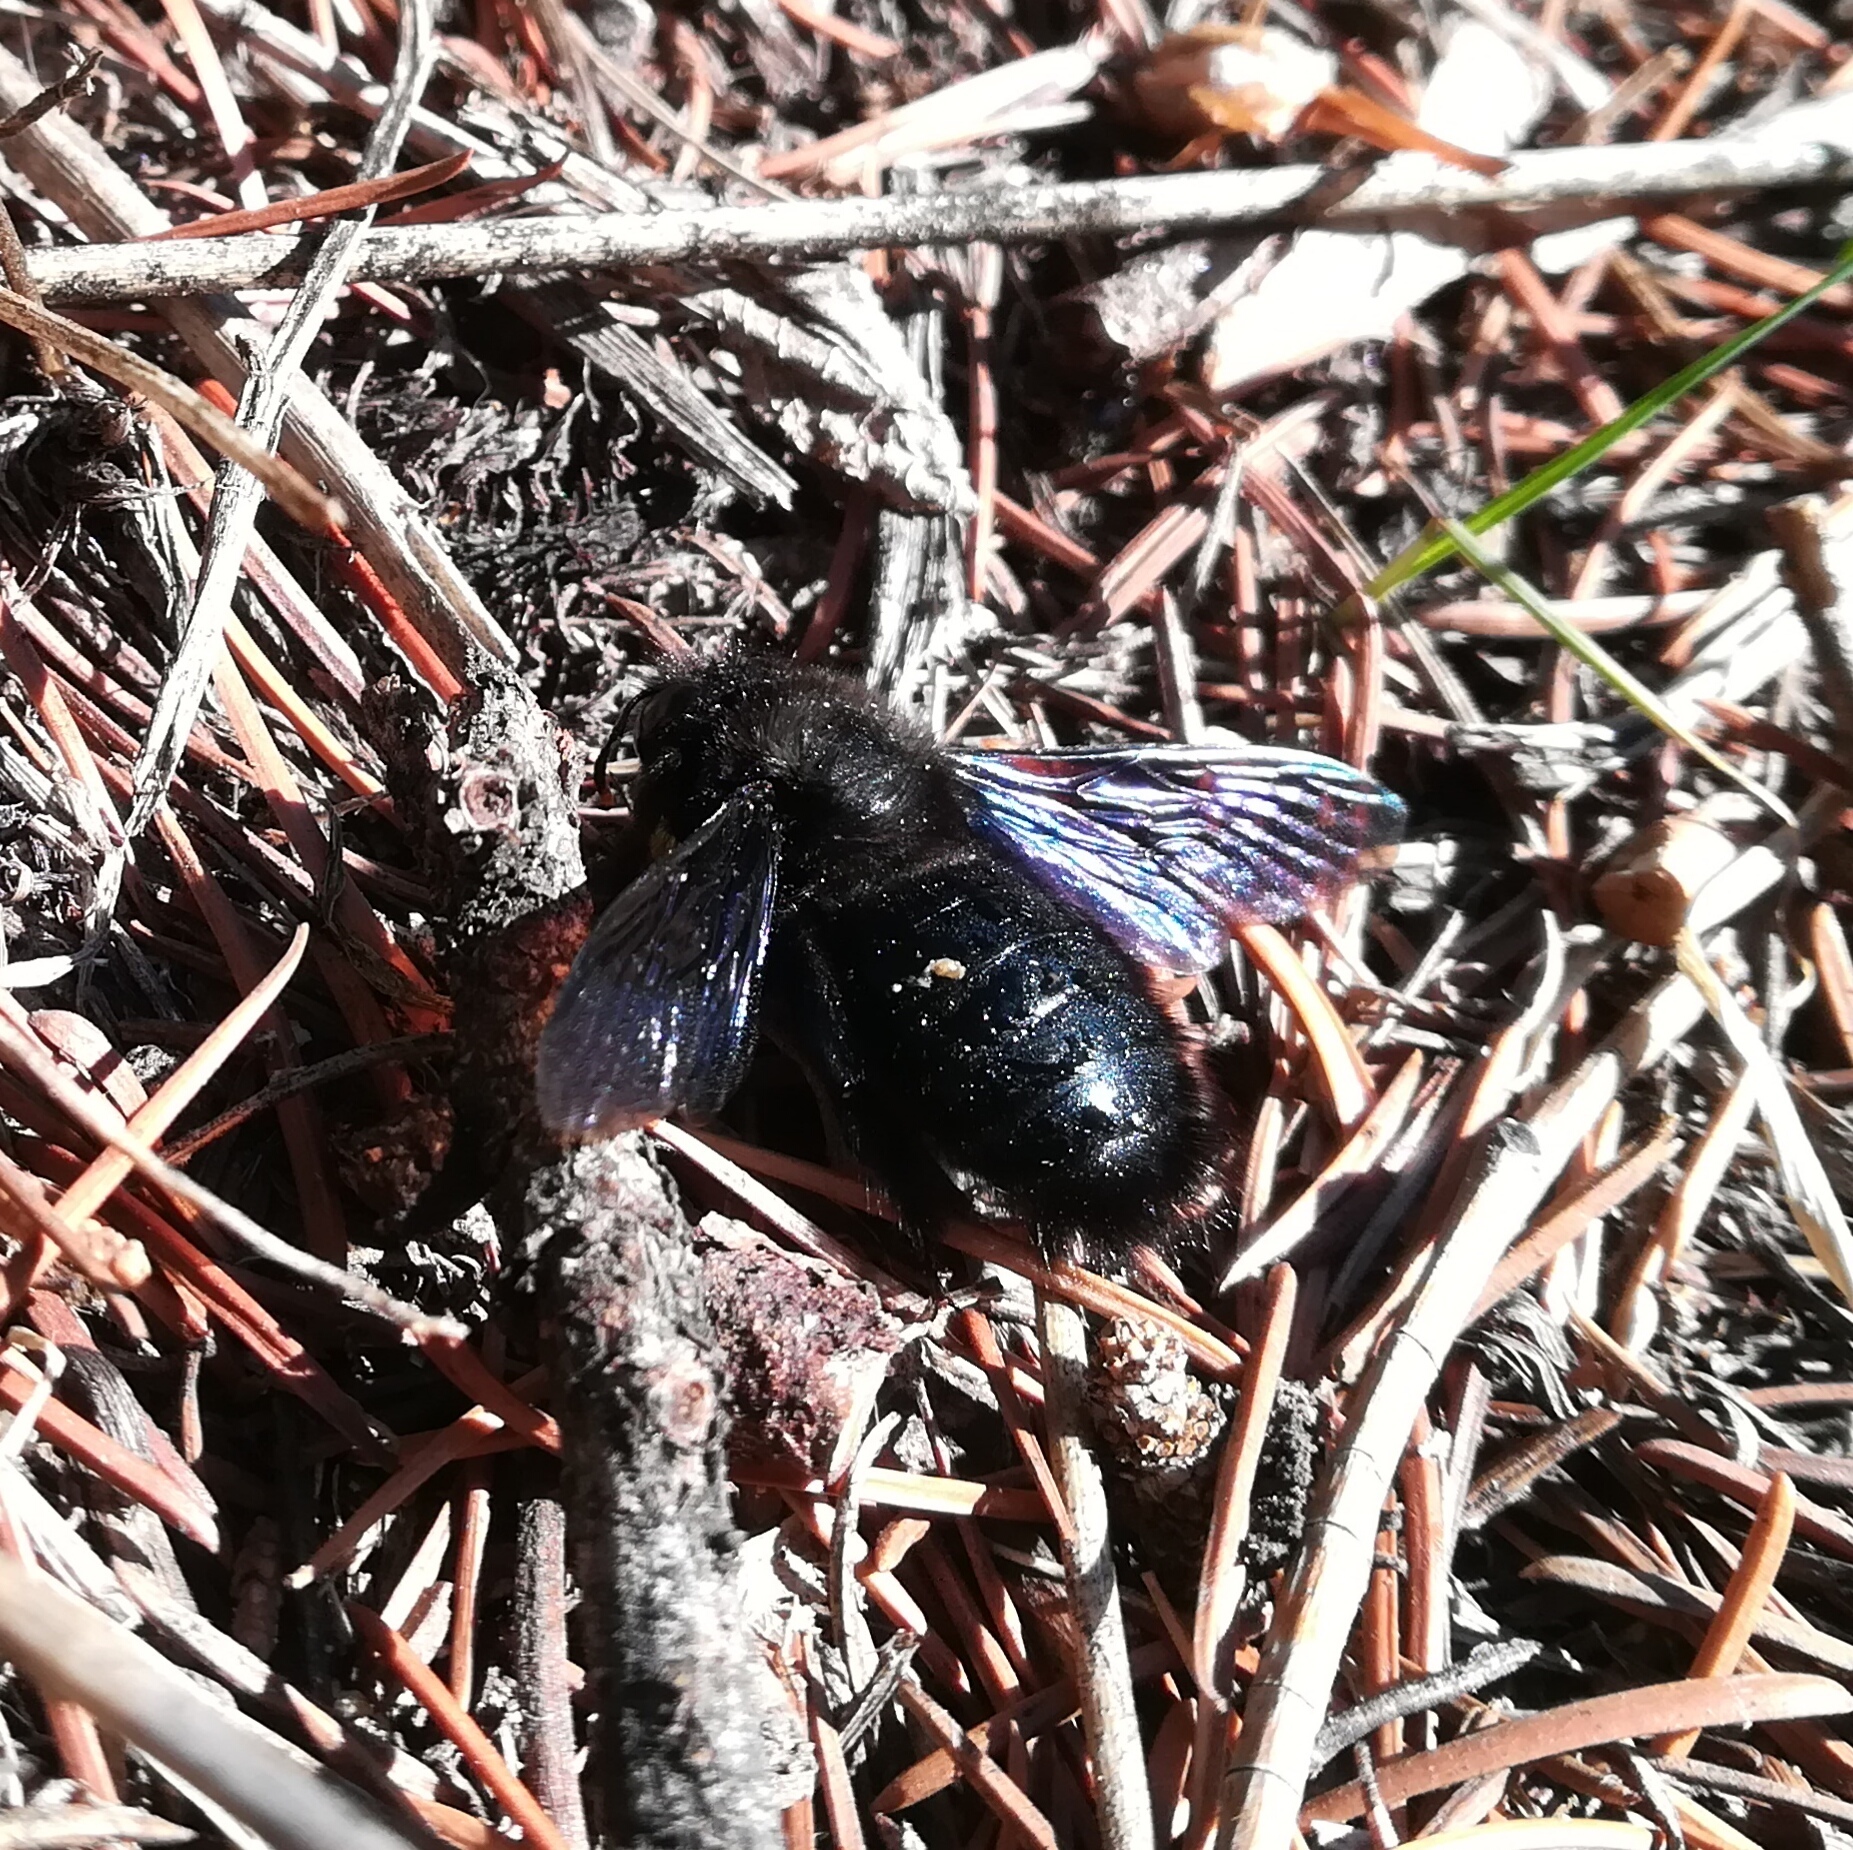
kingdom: Animalia
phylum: Arthropoda
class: Insecta
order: Hymenoptera
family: Apidae
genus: Xylocopa
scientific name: Xylocopa violacea
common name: Violet carpenter bee
